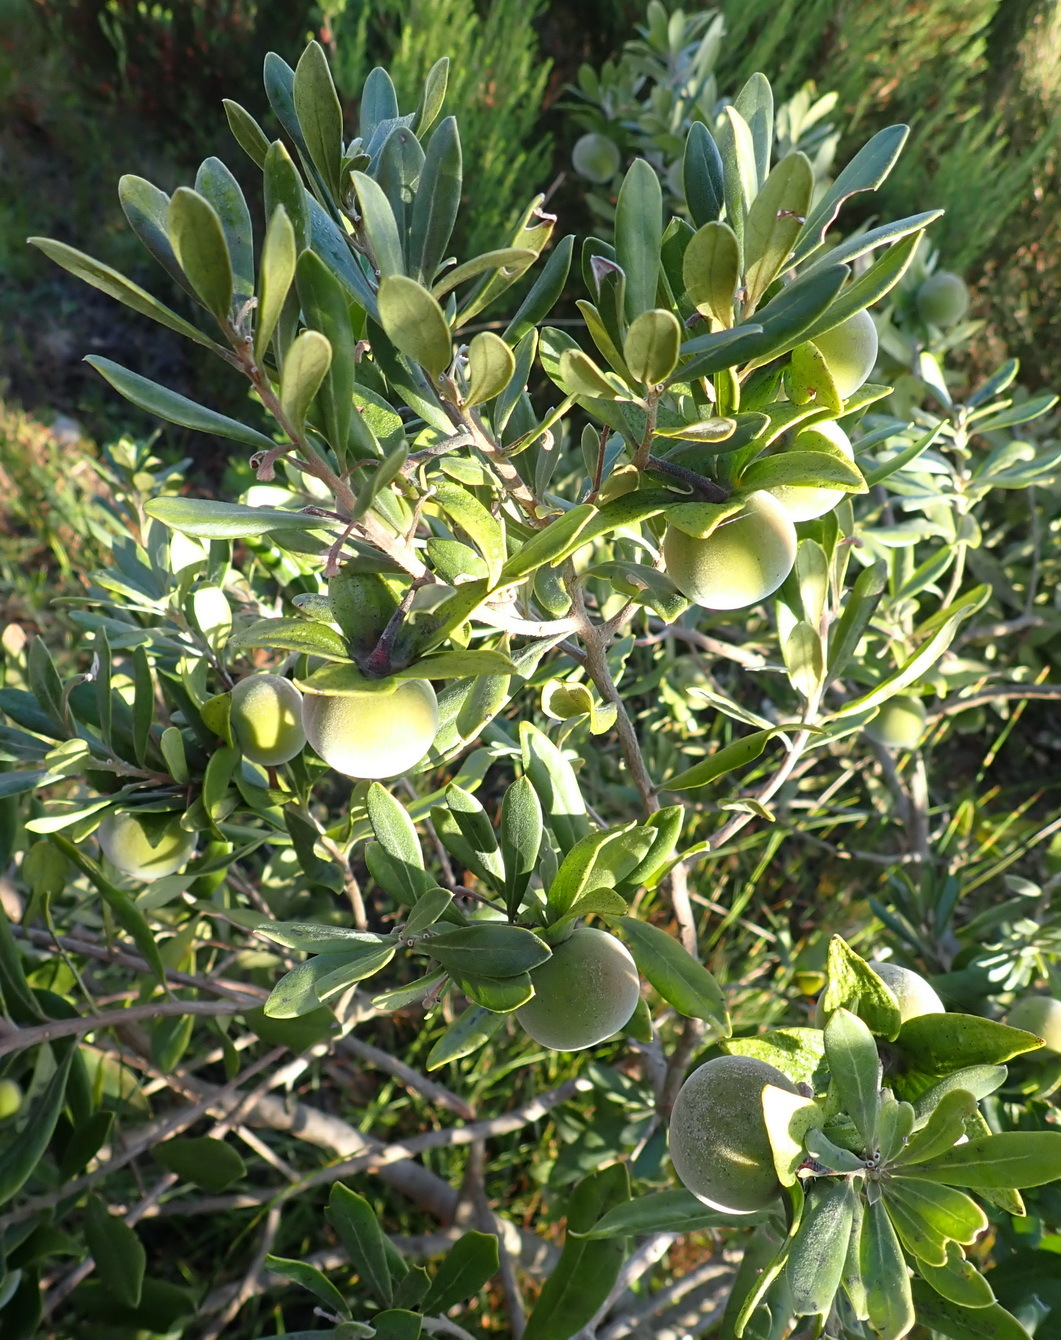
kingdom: Plantae
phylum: Tracheophyta
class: Magnoliopsida
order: Ericales
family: Ebenaceae
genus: Diospyros
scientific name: Diospyros dichrophylla
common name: Common star-apple
